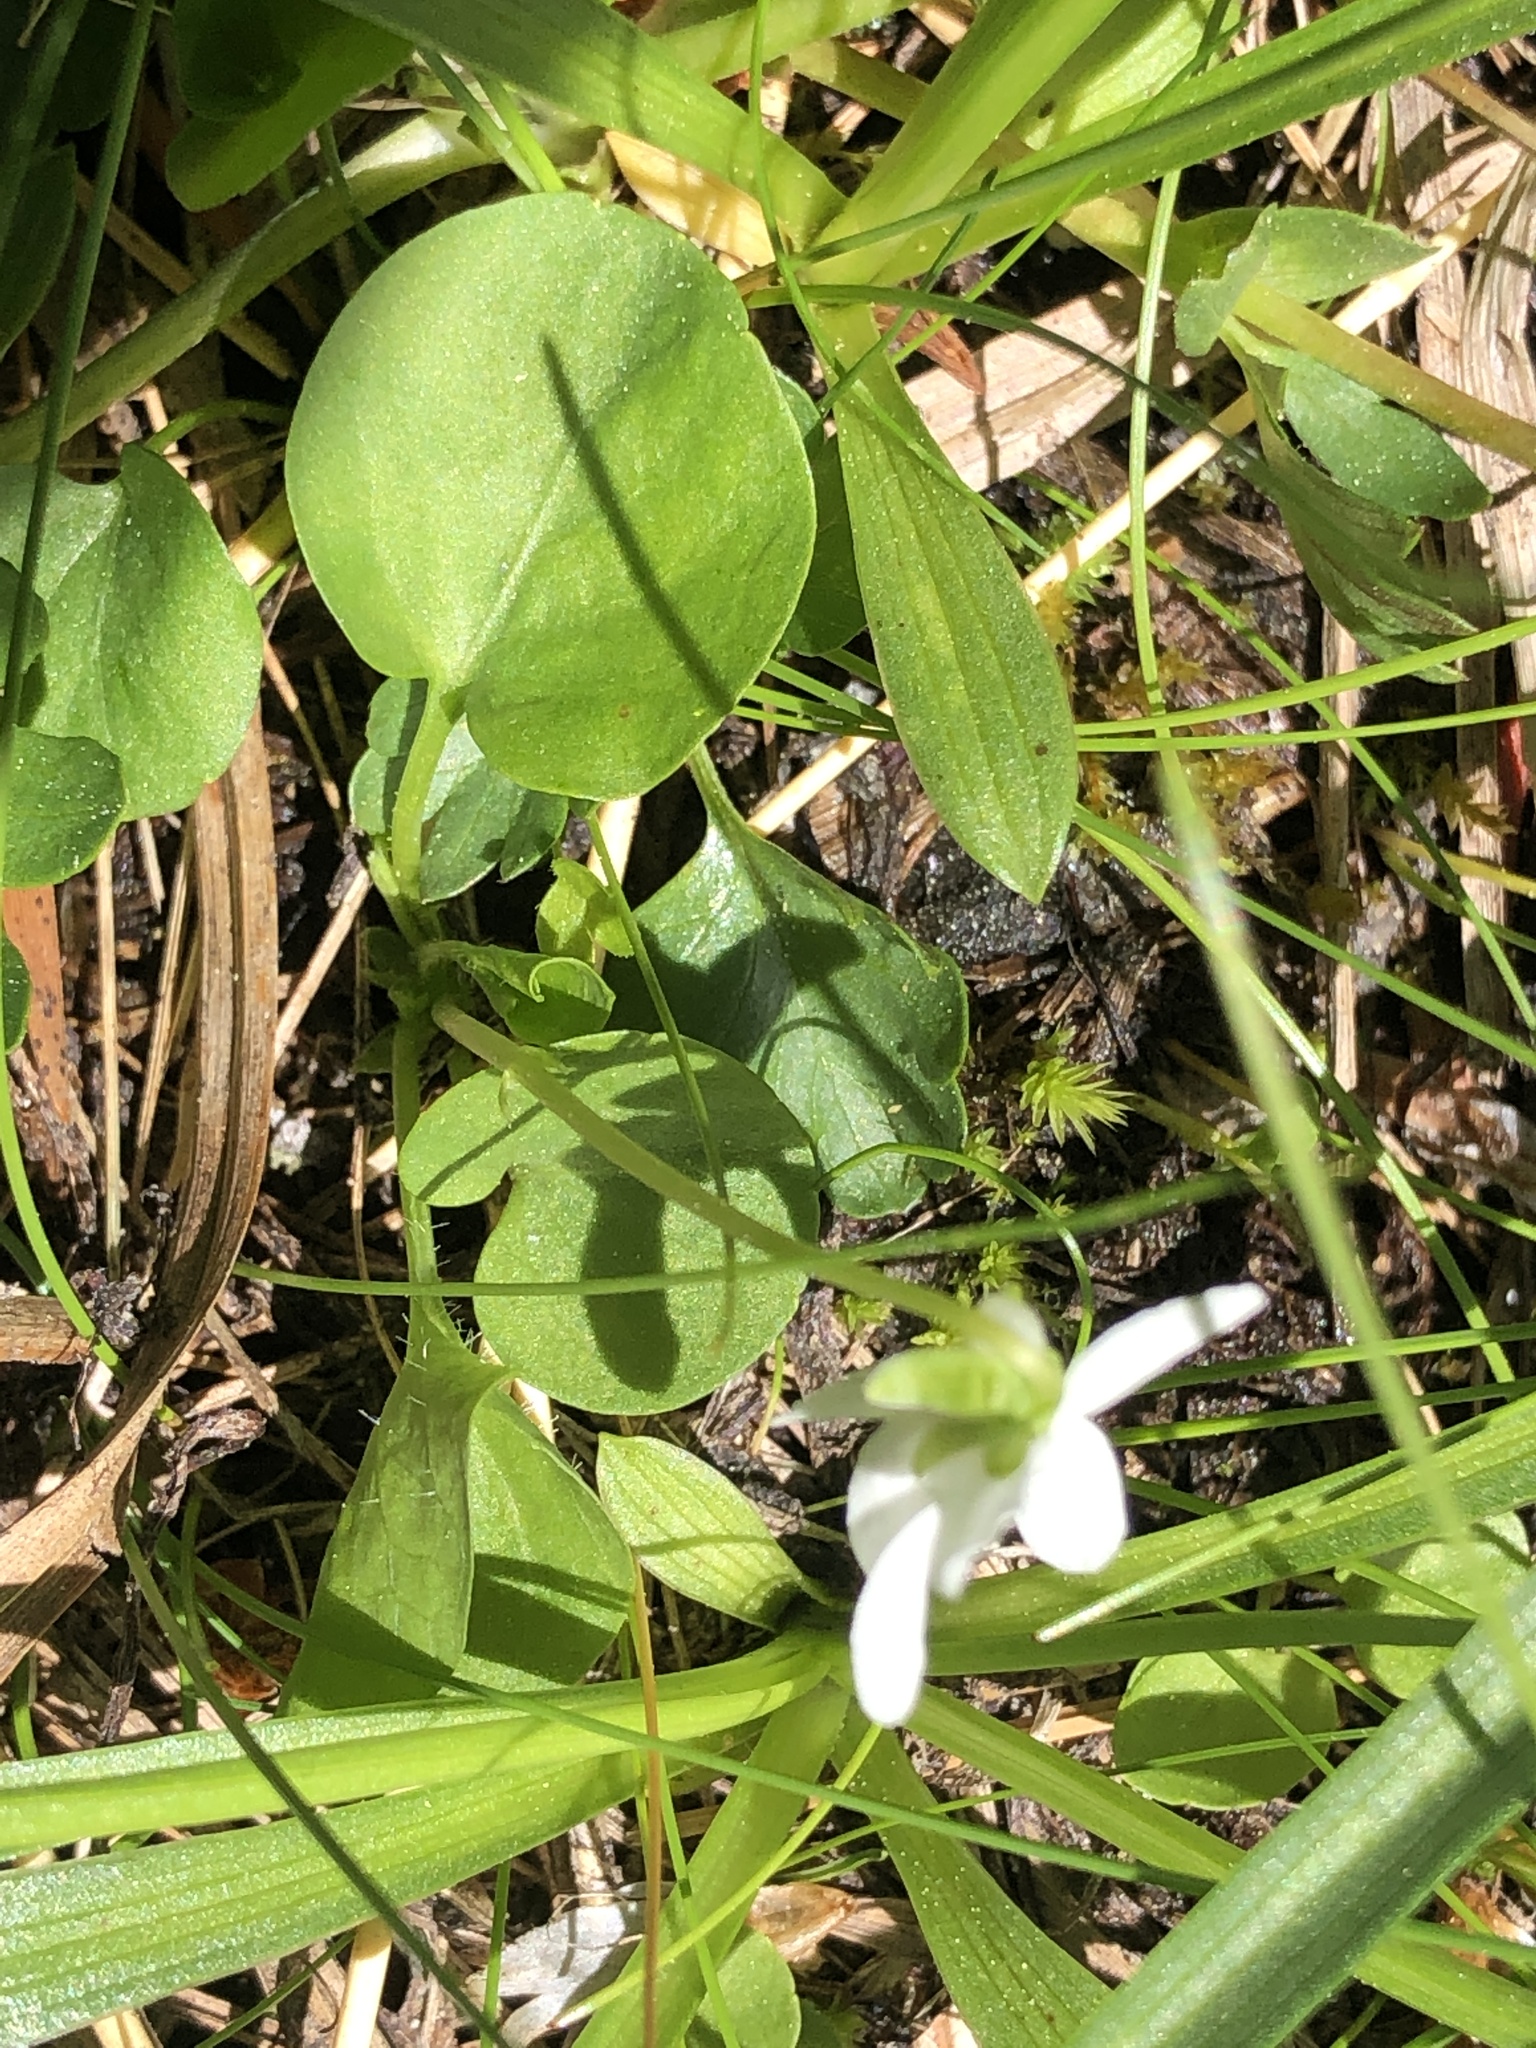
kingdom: Plantae
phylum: Tracheophyta
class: Magnoliopsida
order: Malpighiales
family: Violaceae
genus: Viola
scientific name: Viola macloskeyi
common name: Macloskey's violet
